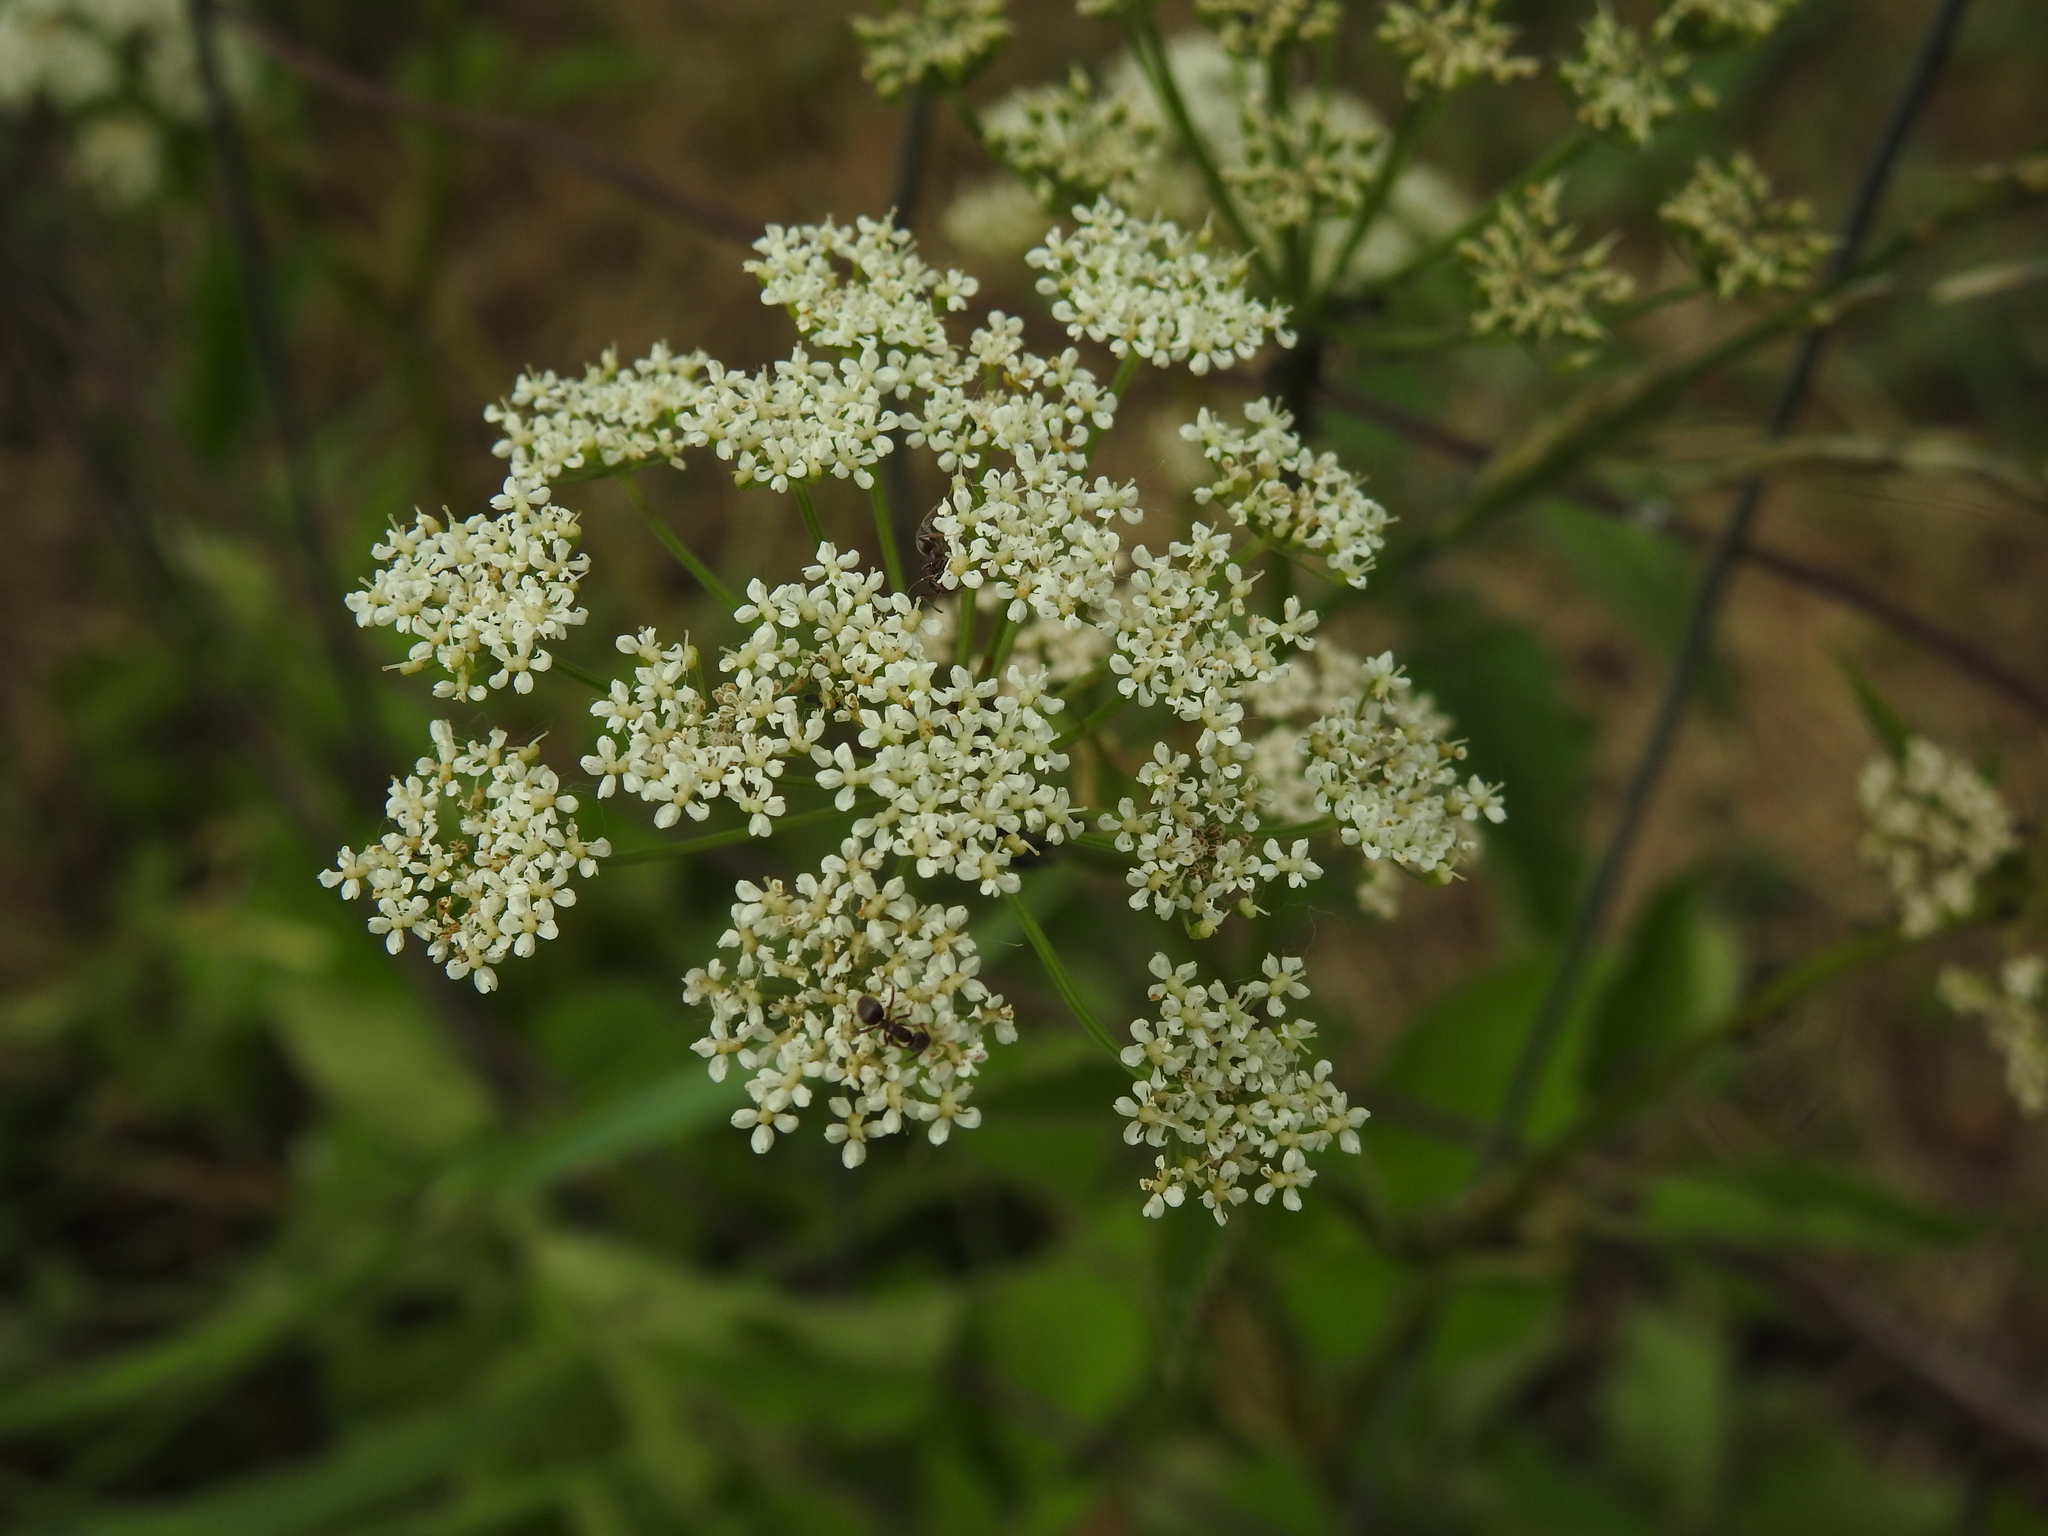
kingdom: Plantae
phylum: Tracheophyta
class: Magnoliopsida
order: Apiales
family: Apiaceae
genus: Aegopodium
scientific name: Aegopodium podagraria
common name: Ground-elder
